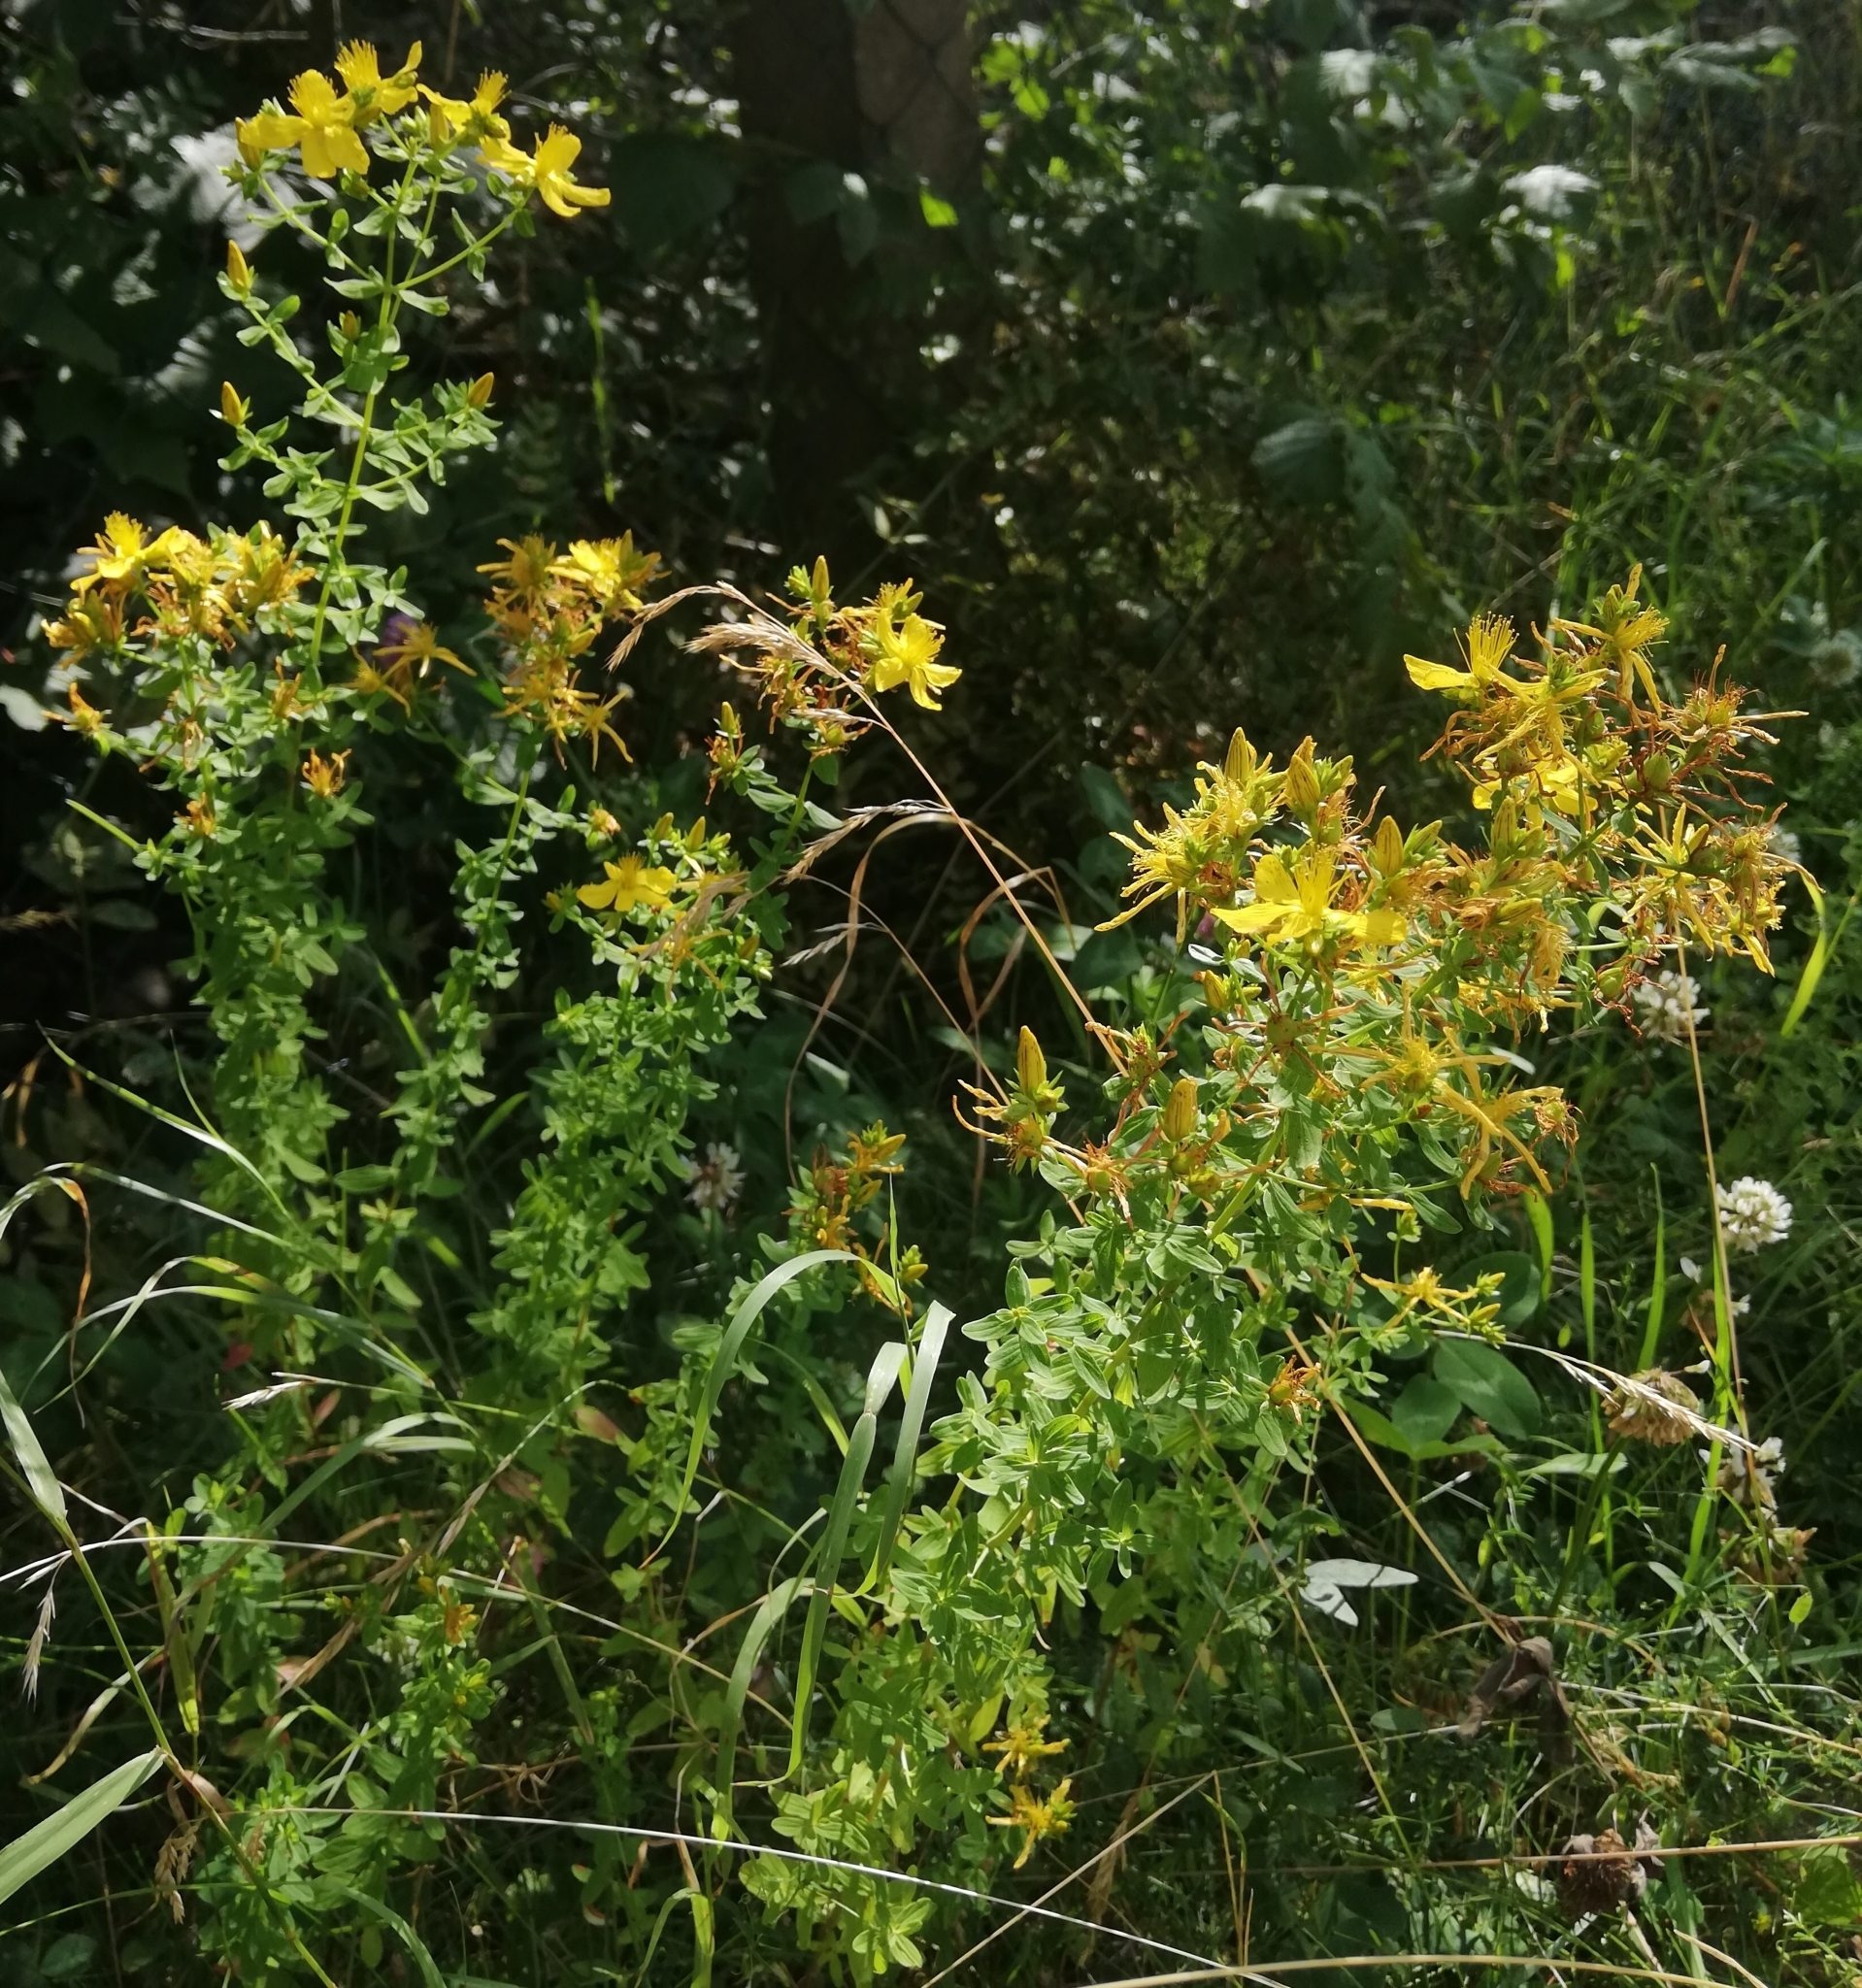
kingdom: Plantae
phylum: Tracheophyta
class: Magnoliopsida
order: Malpighiales
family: Hypericaceae
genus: Hypericum
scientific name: Hypericum perforatum
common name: Common st. johnswort
